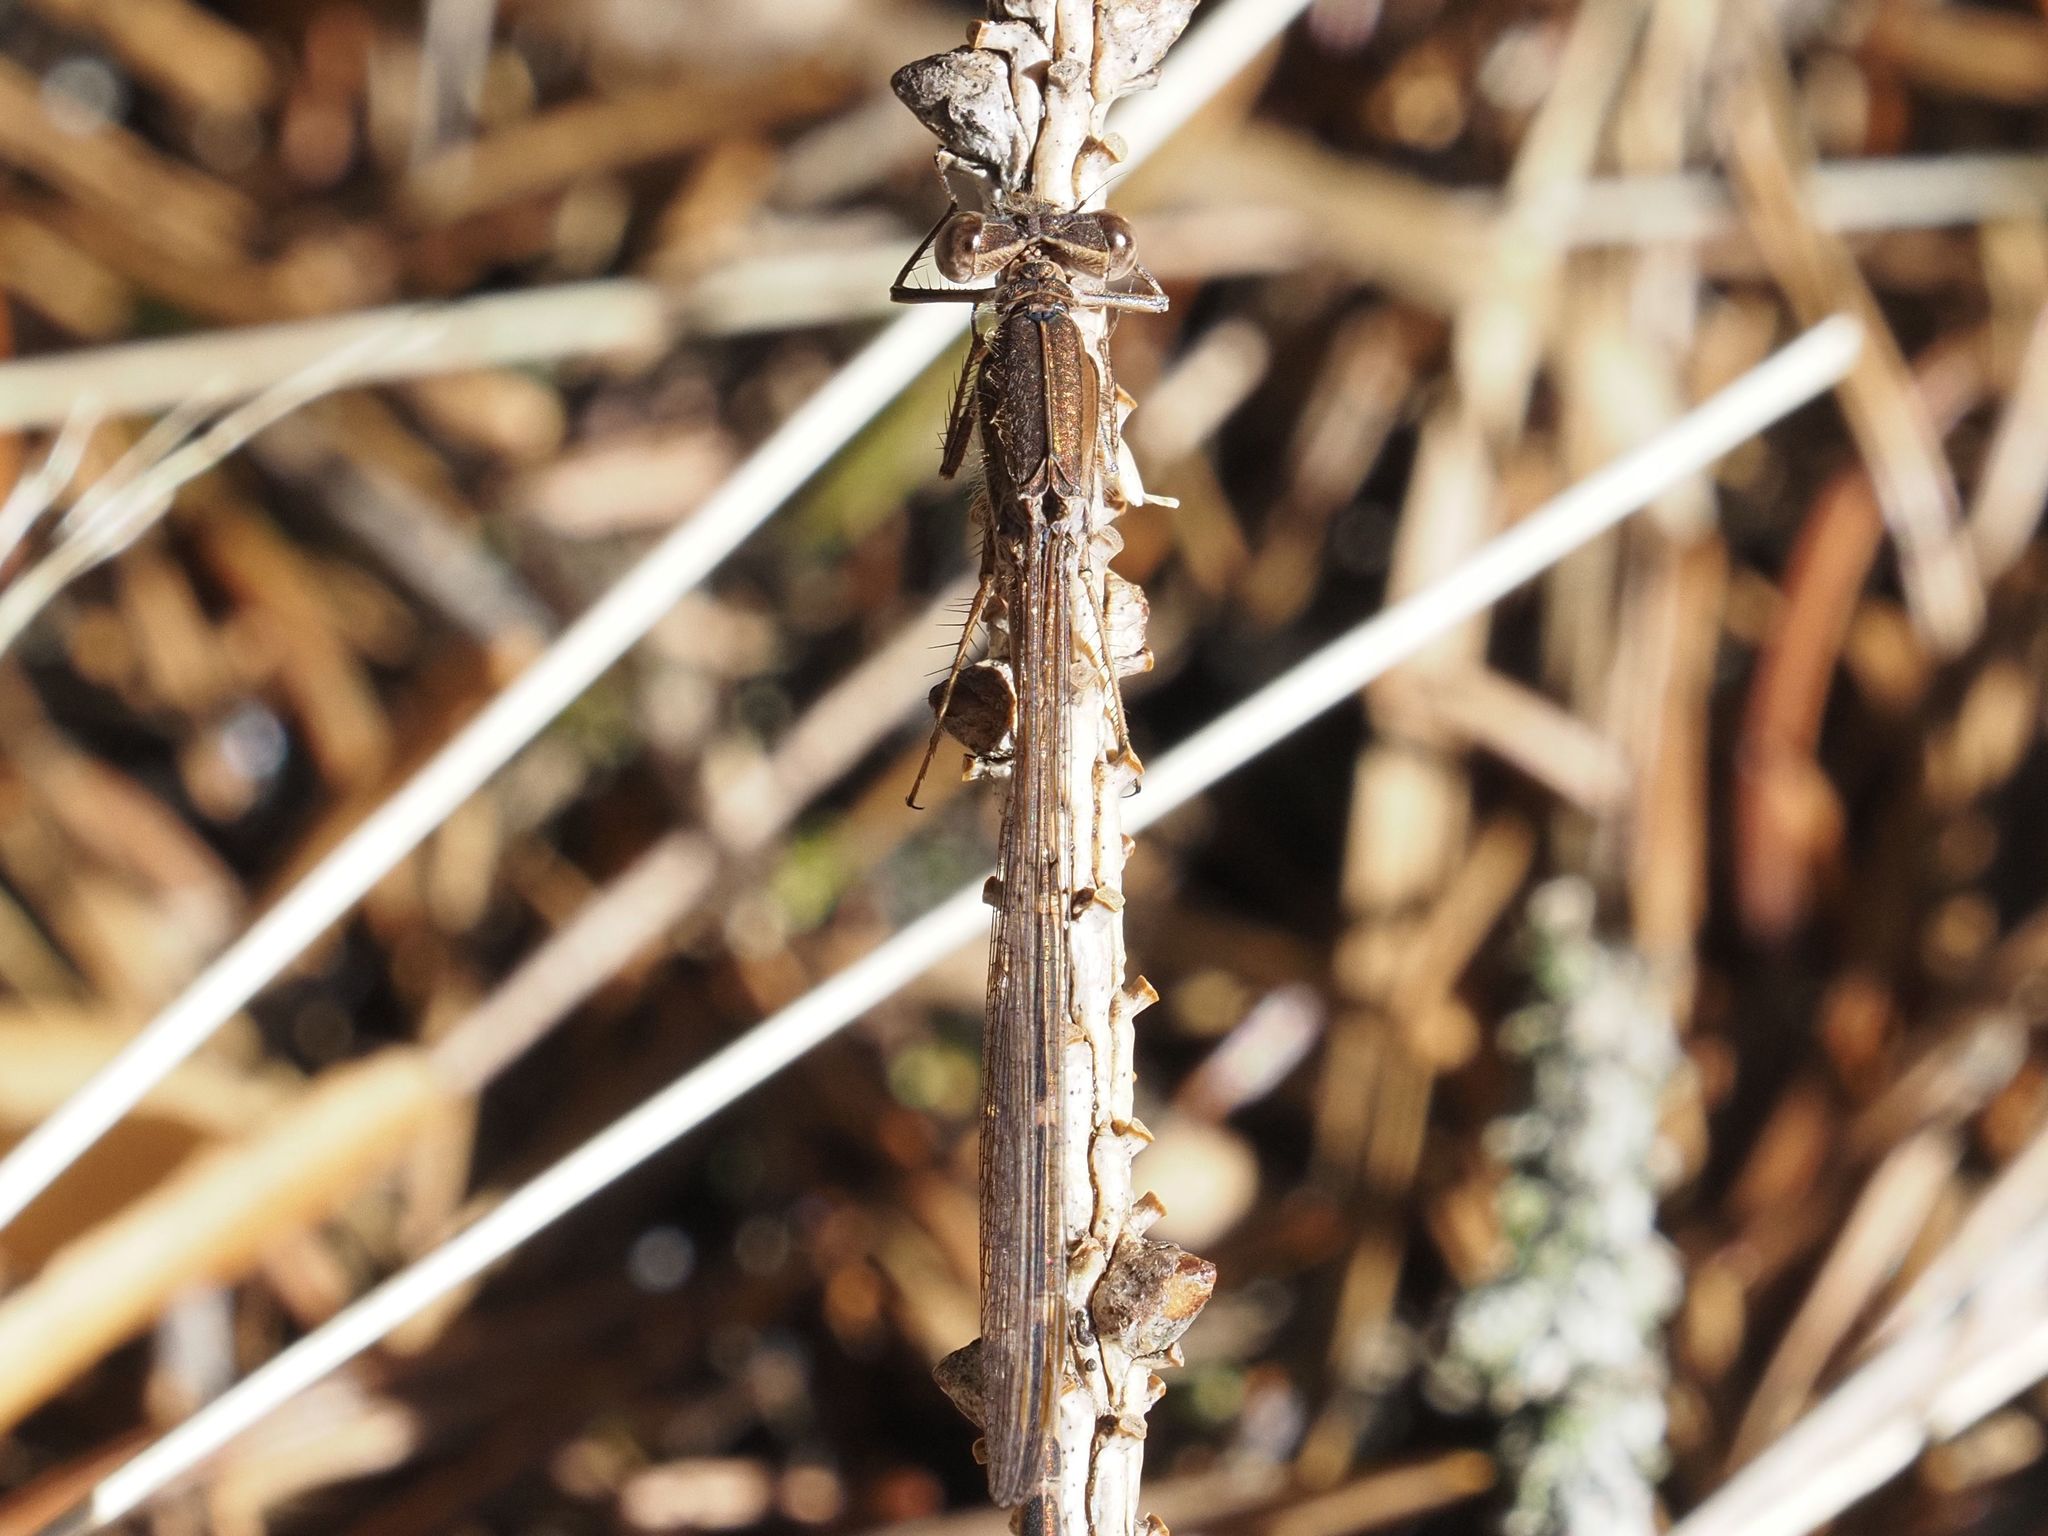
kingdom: Animalia
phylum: Arthropoda
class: Insecta
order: Odonata
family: Lestidae
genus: Sympecma
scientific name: Sympecma fusca
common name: Common winter damsel
